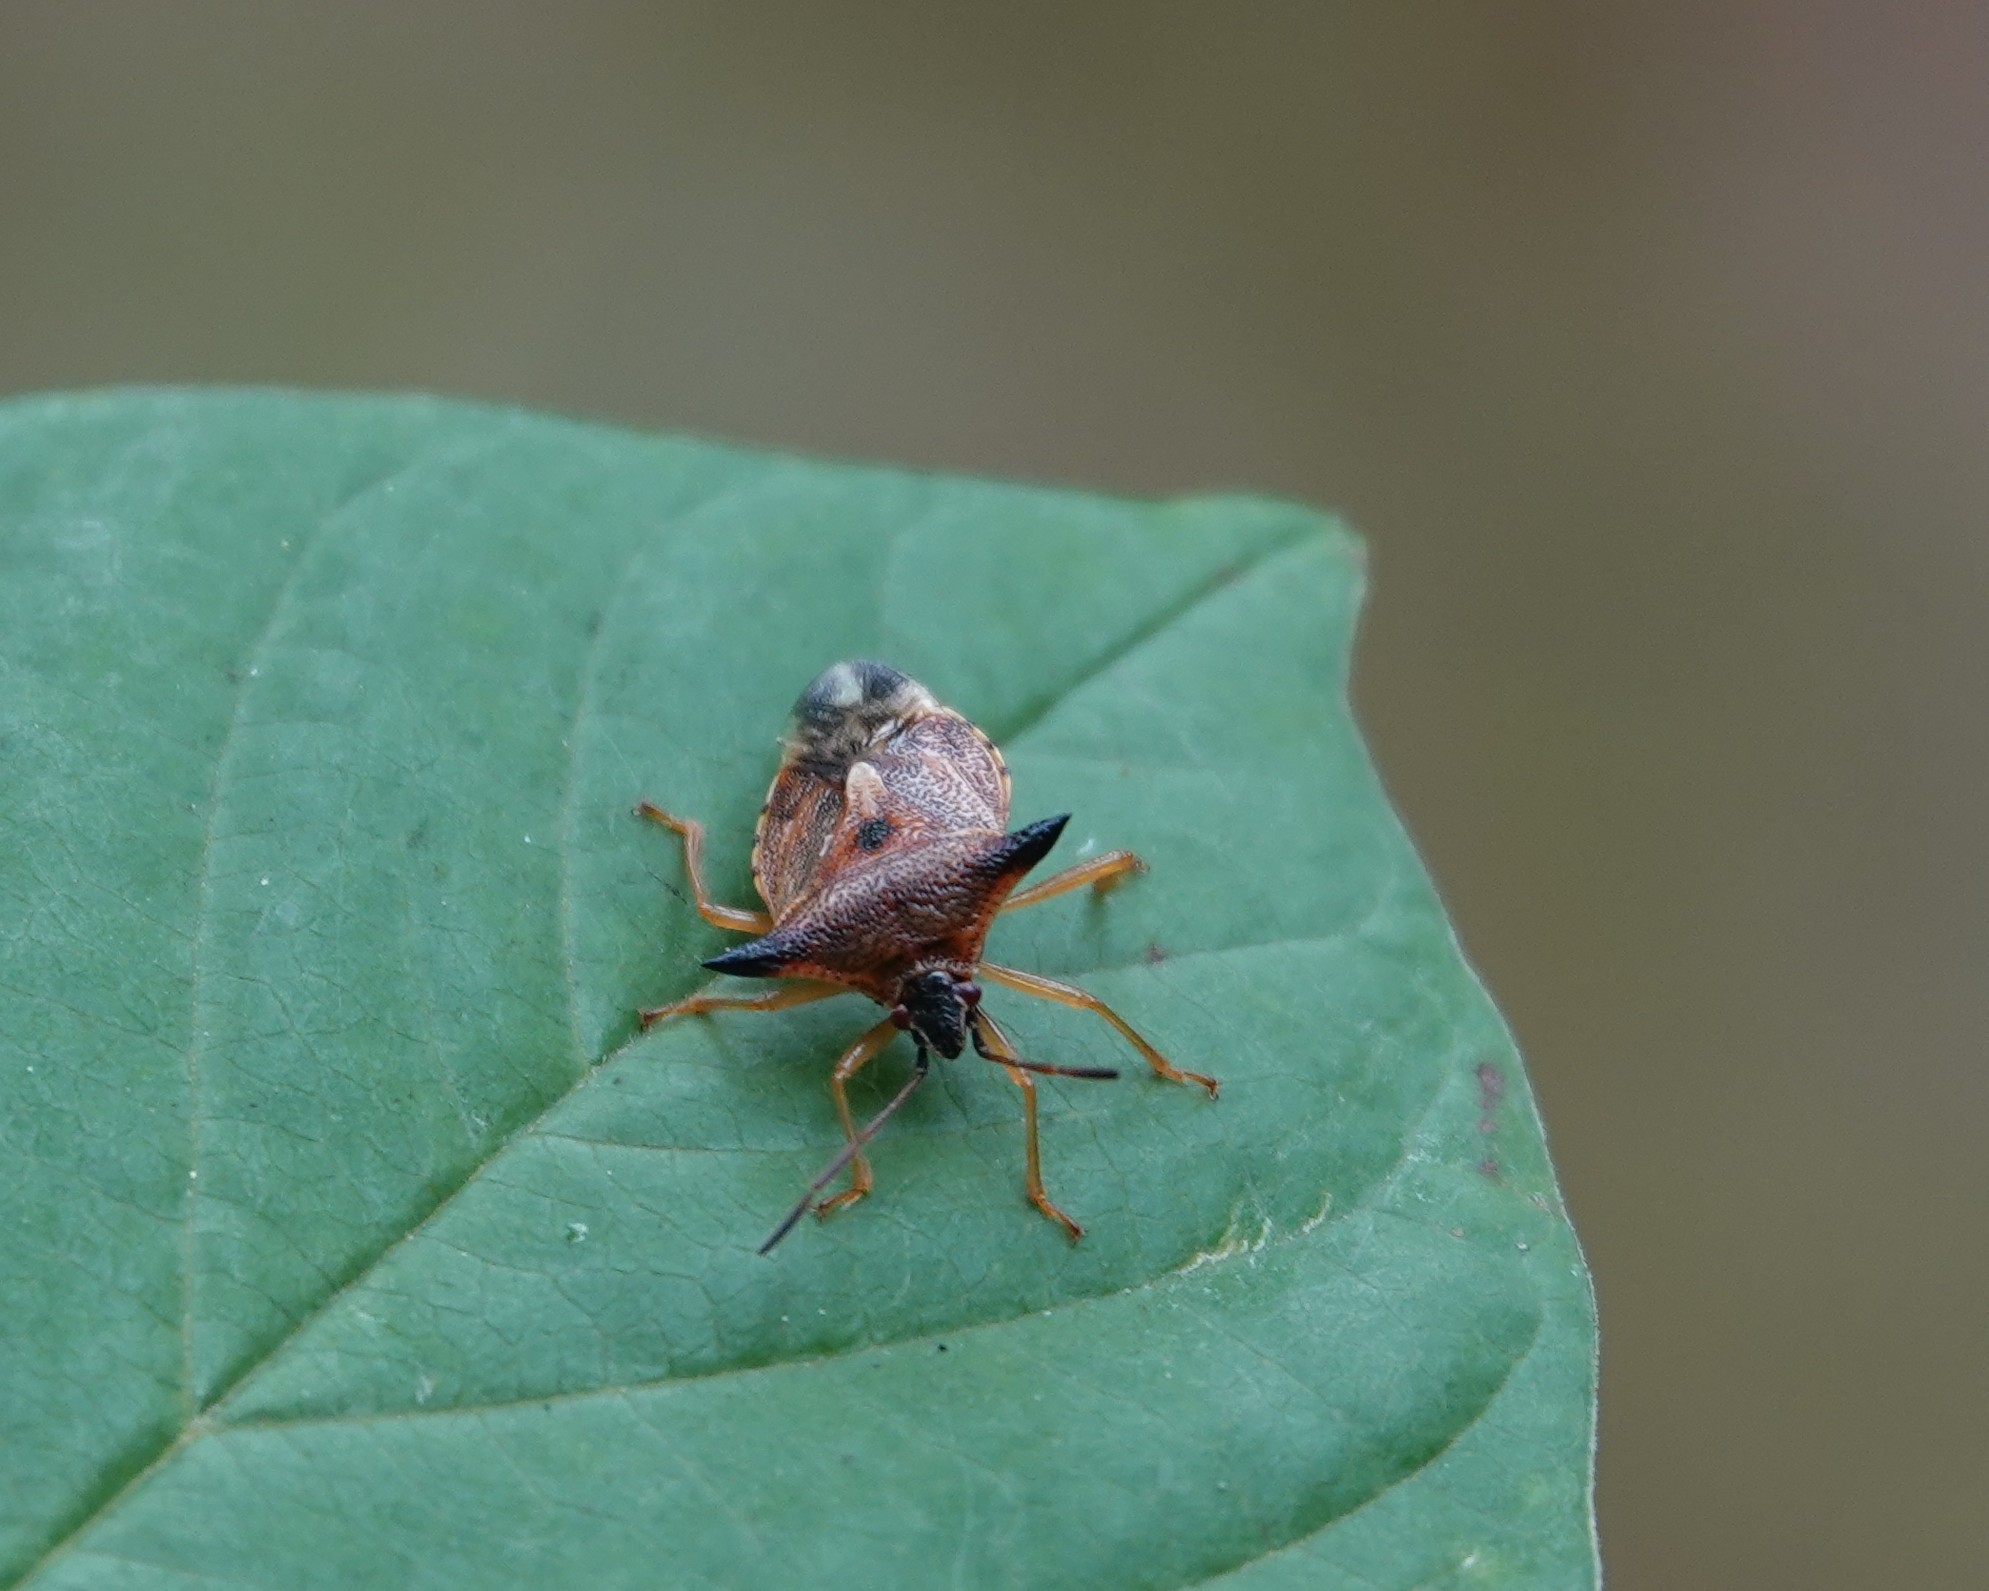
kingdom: Animalia
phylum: Arthropoda
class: Insecta
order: Hemiptera
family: Acanthosomatidae
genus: Elasmucha
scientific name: Elasmucha ferrugata
